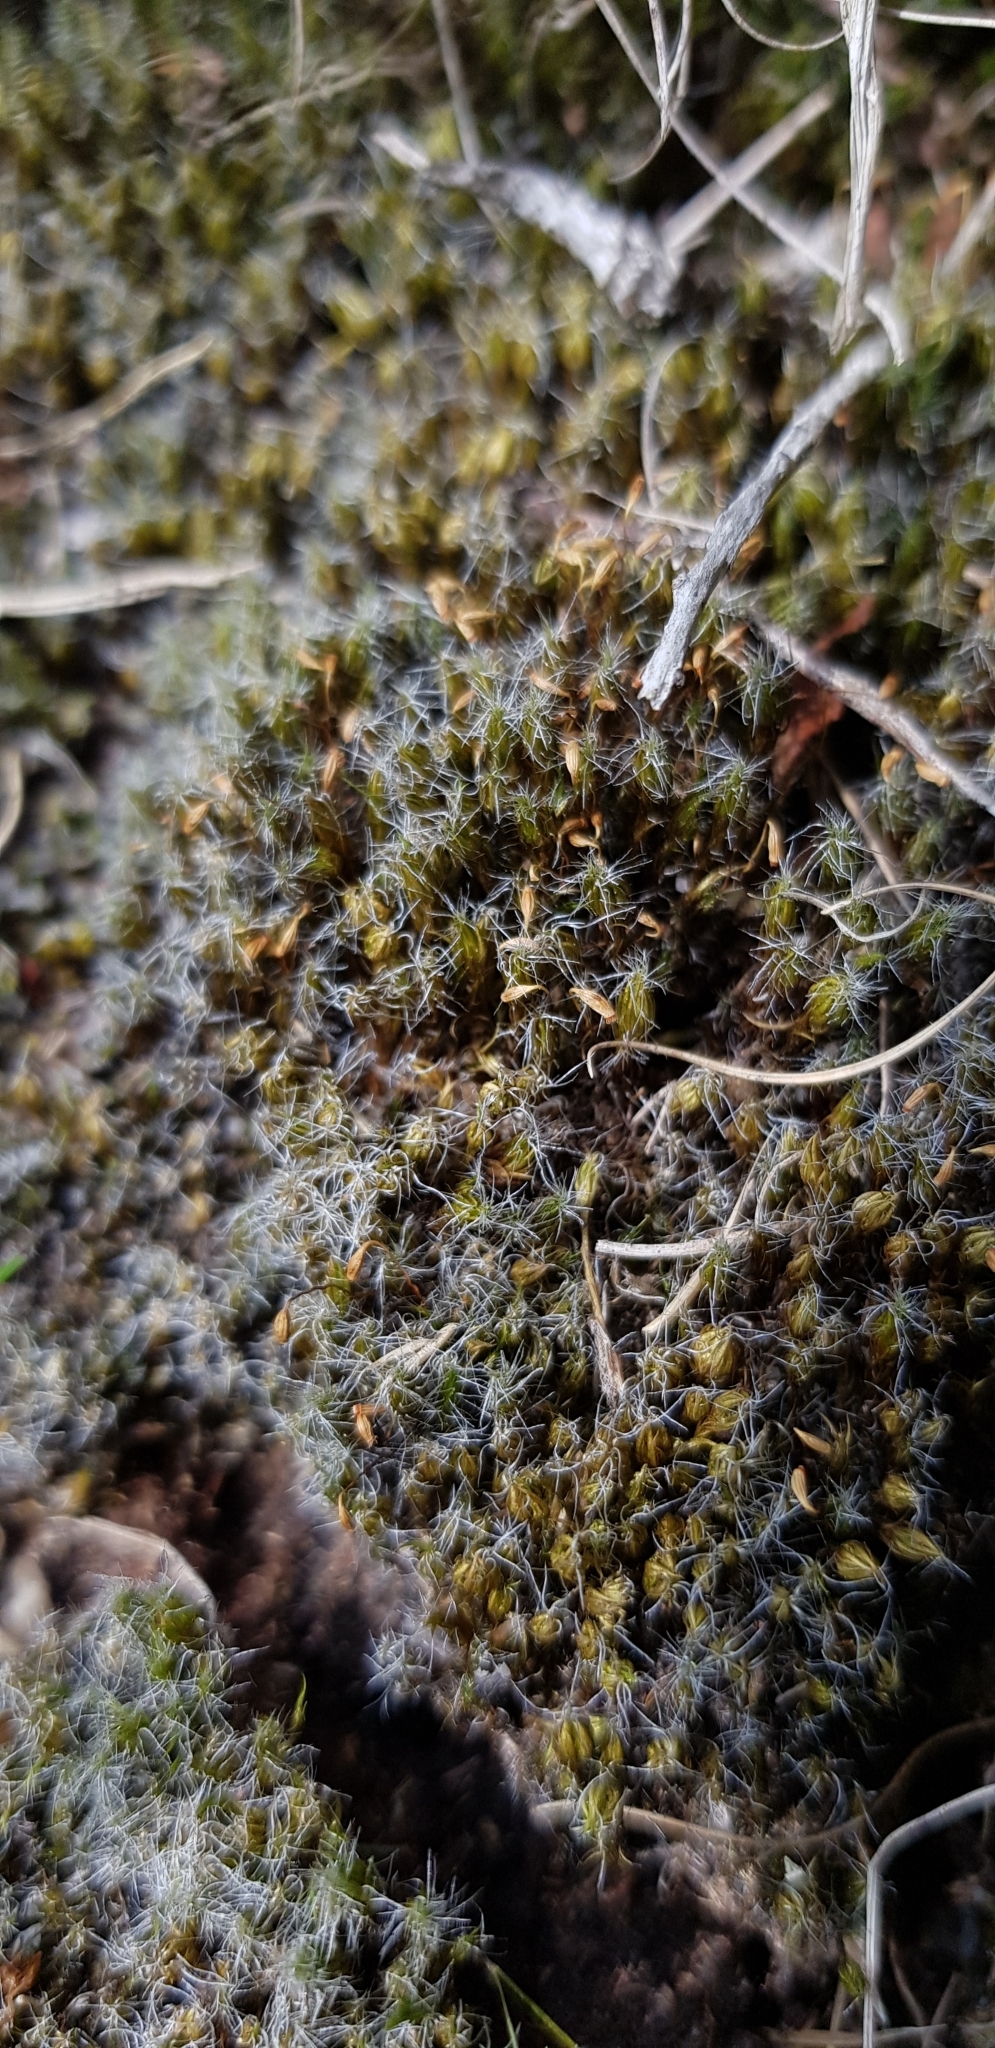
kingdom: Plantae
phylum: Bryophyta
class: Bryopsida
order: Dicranales
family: Leucobryaceae
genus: Campylopus
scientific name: Campylopus introflexus
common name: Heath star moss
